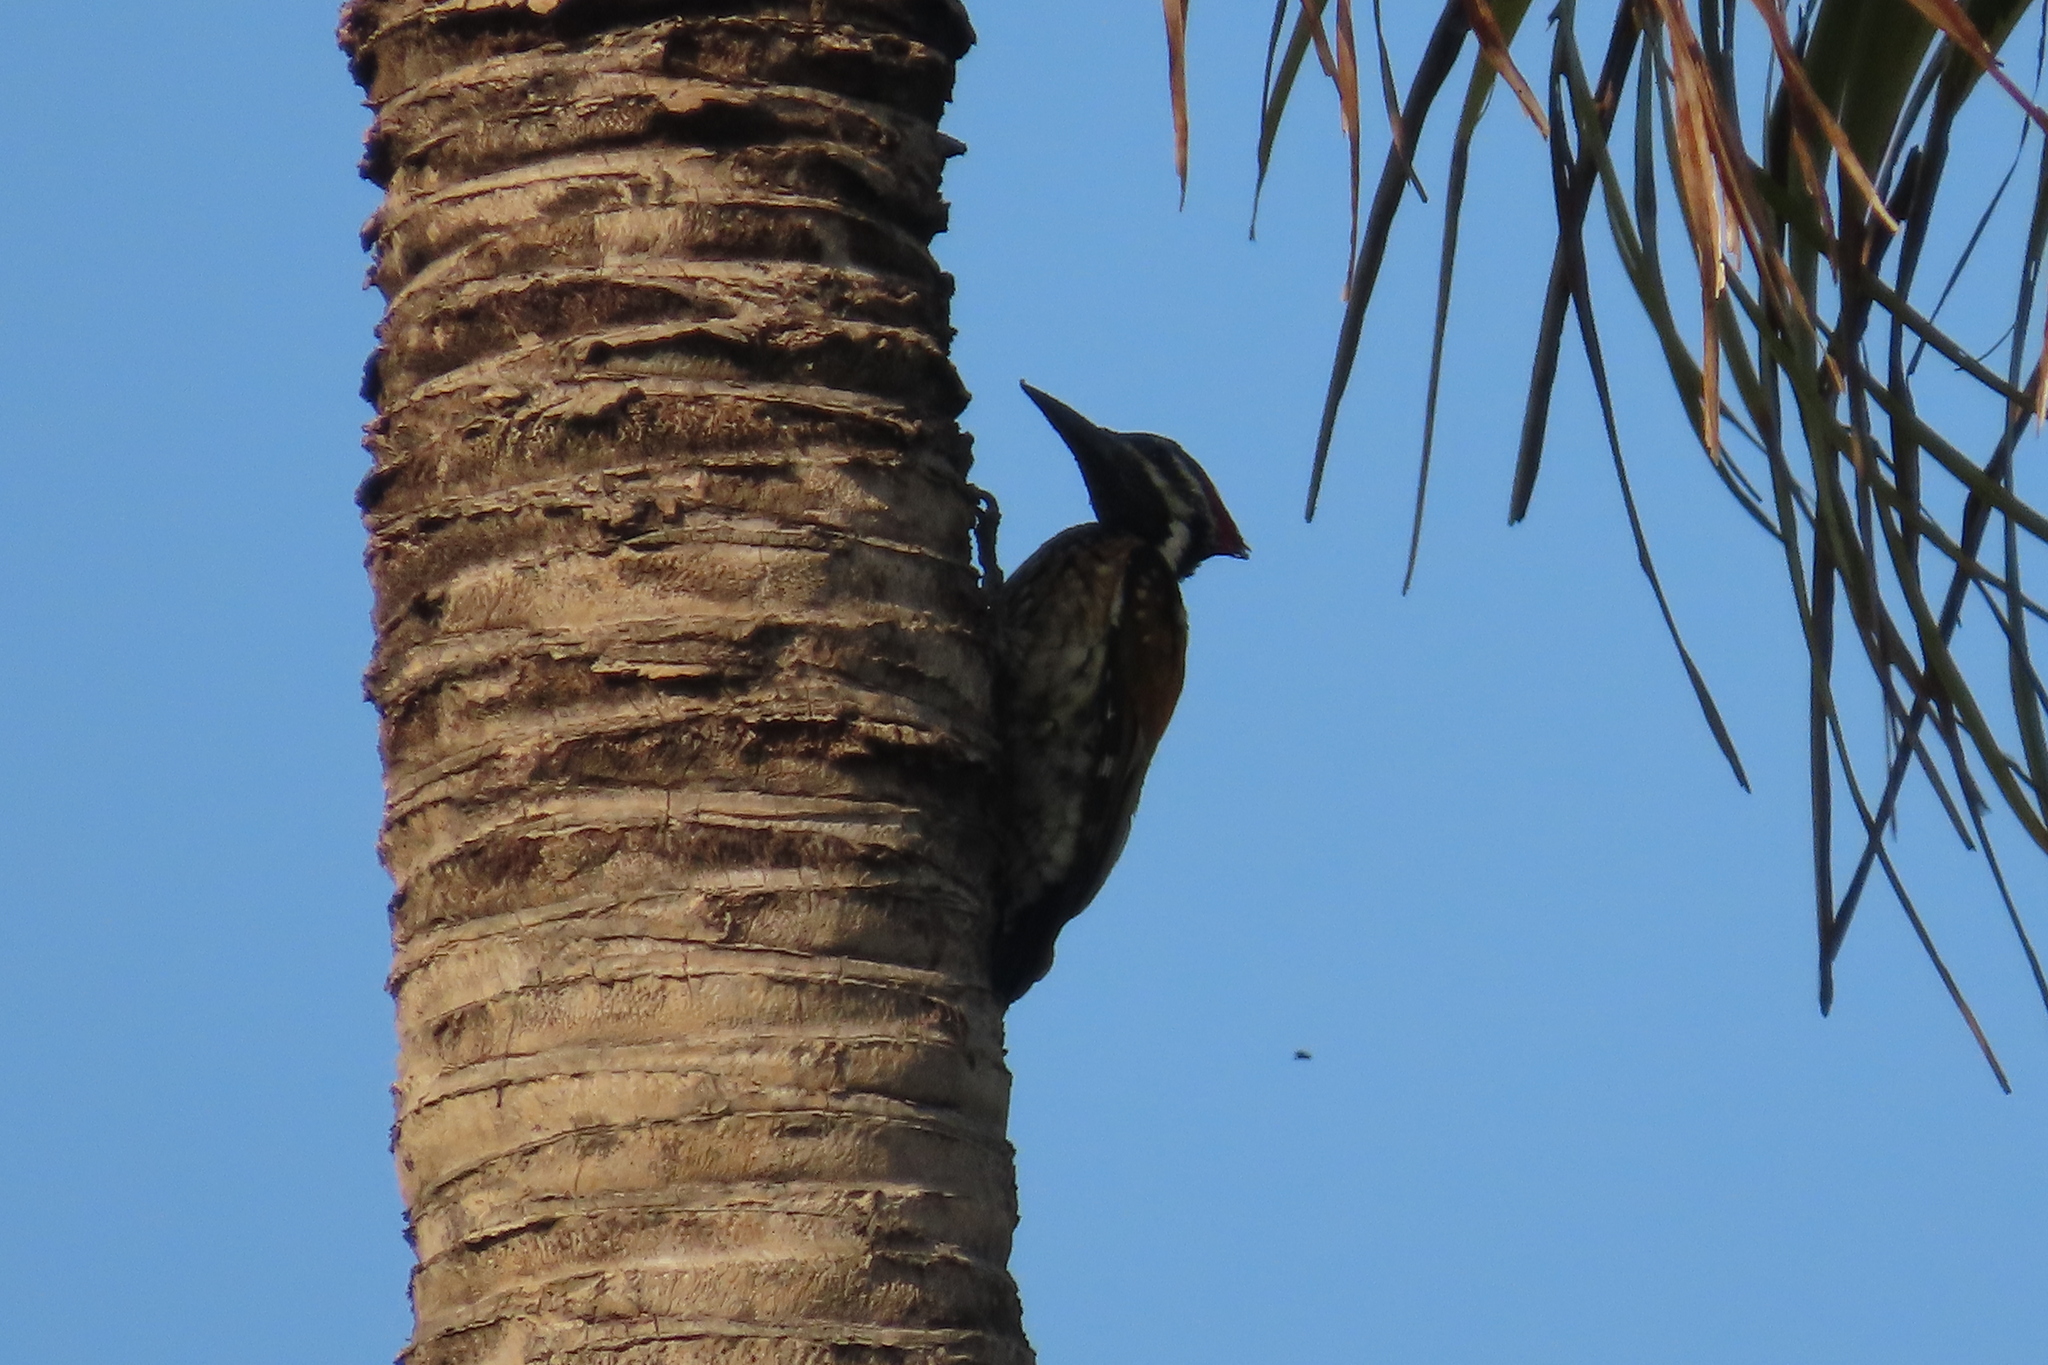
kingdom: Animalia
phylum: Chordata
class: Aves
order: Piciformes
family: Picidae
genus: Dinopium
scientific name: Dinopium benghalense
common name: Black-rumped flameback
